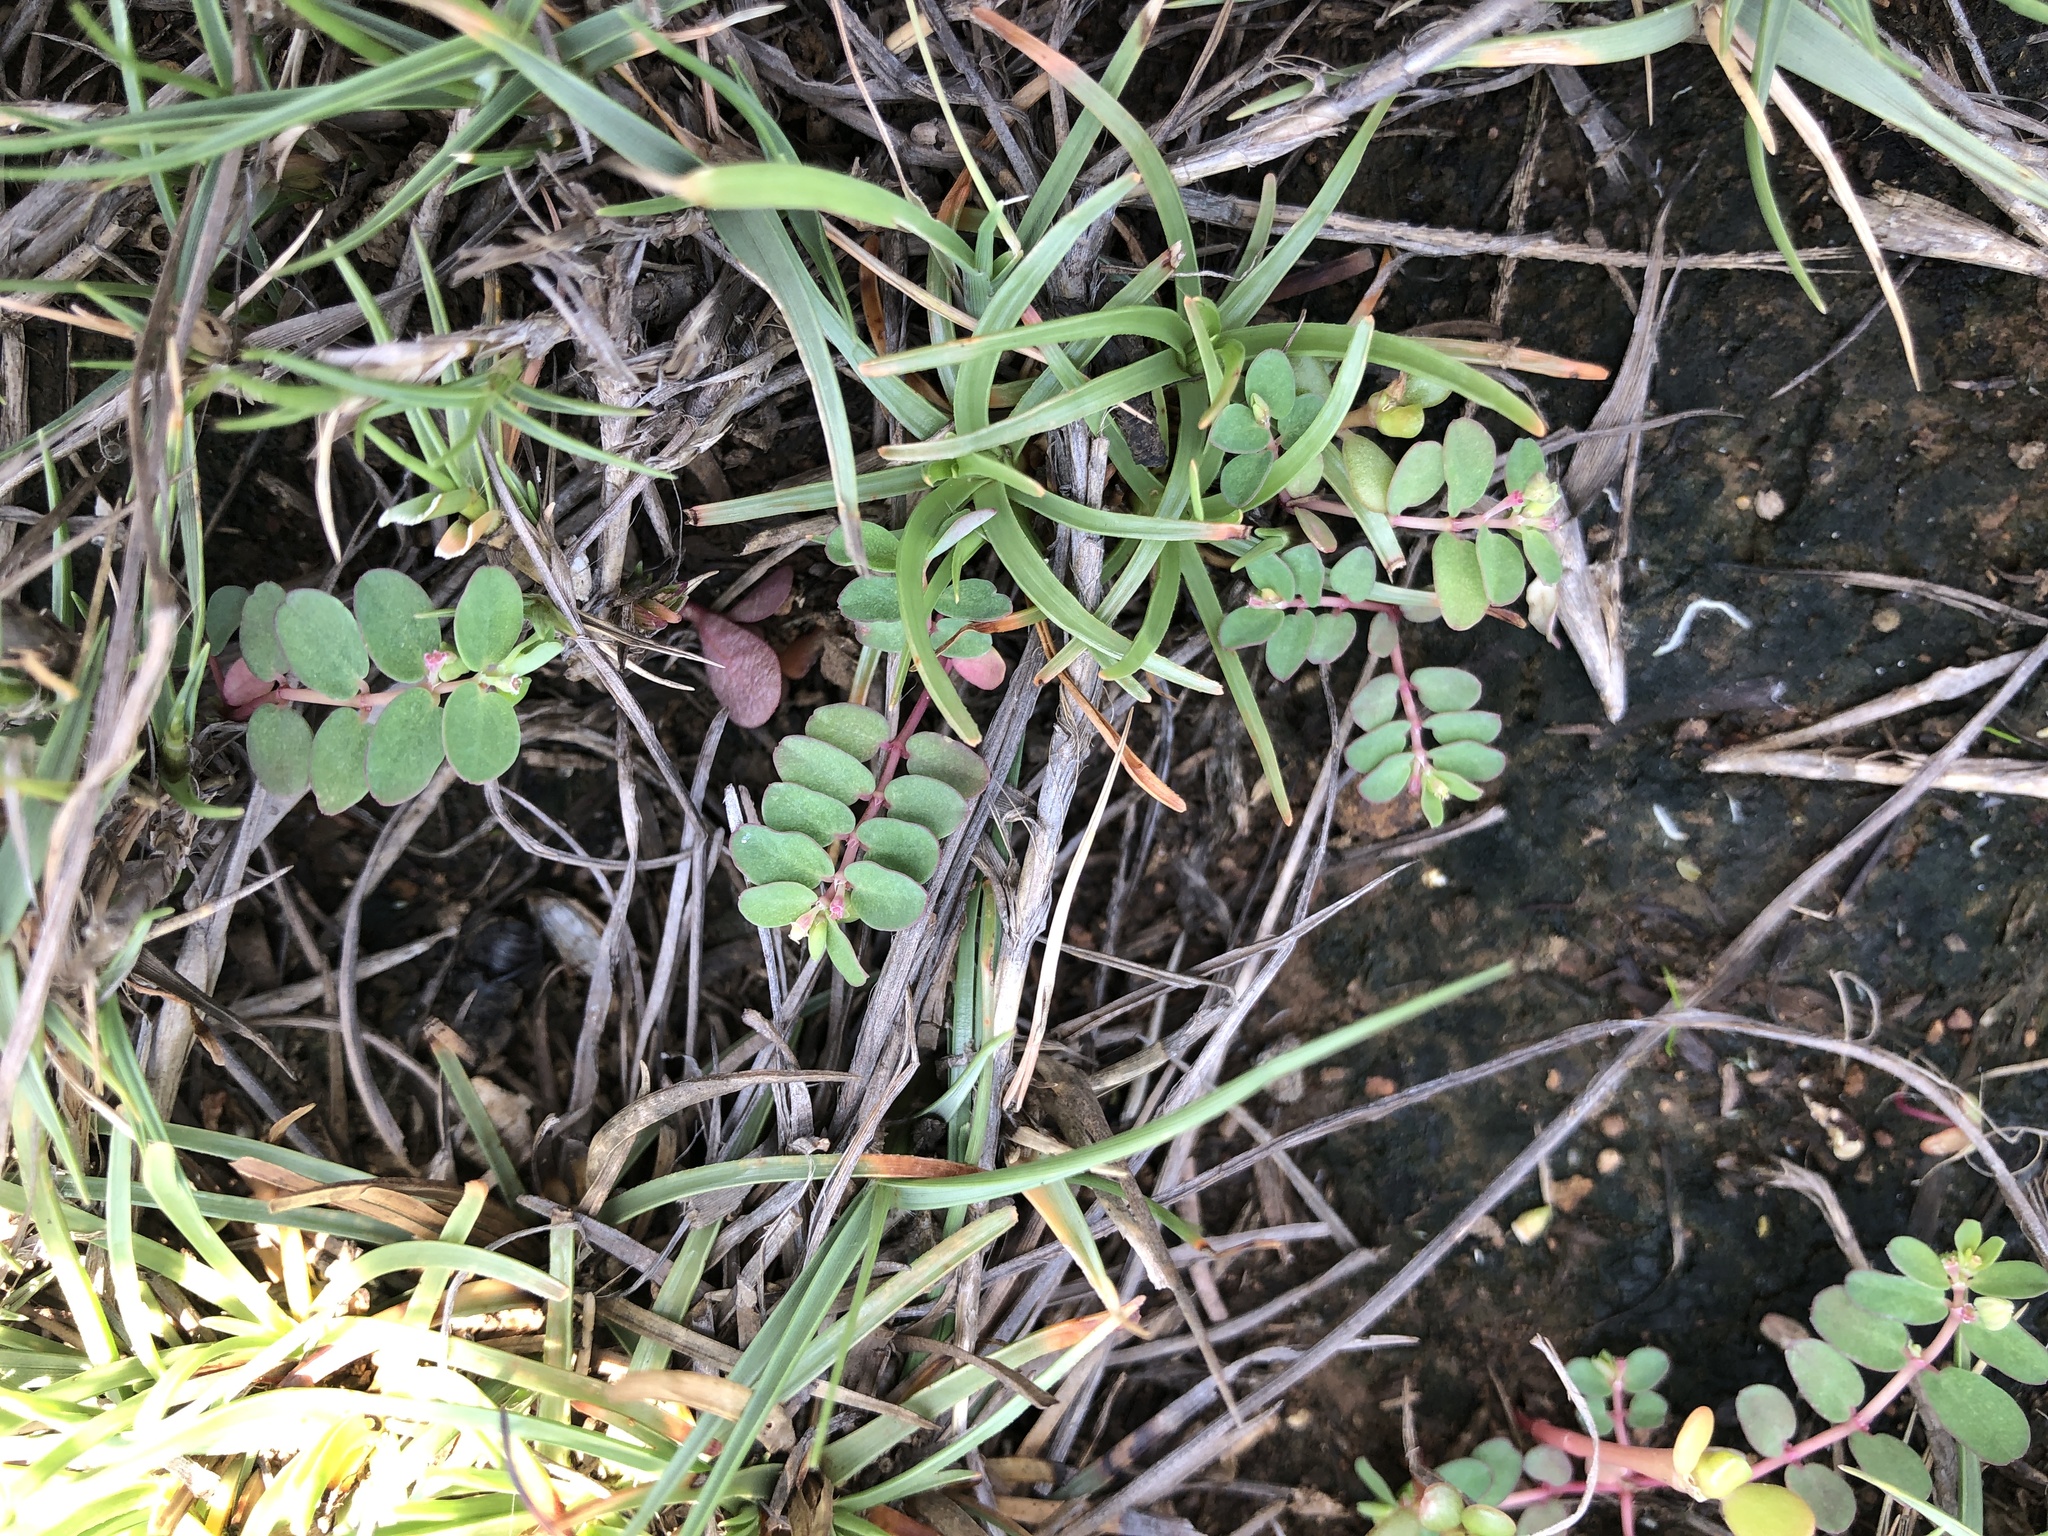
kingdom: Plantae
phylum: Tracheophyta
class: Magnoliopsida
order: Malpighiales
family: Euphorbiaceae
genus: Euphorbia
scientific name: Euphorbia taihsiensis
